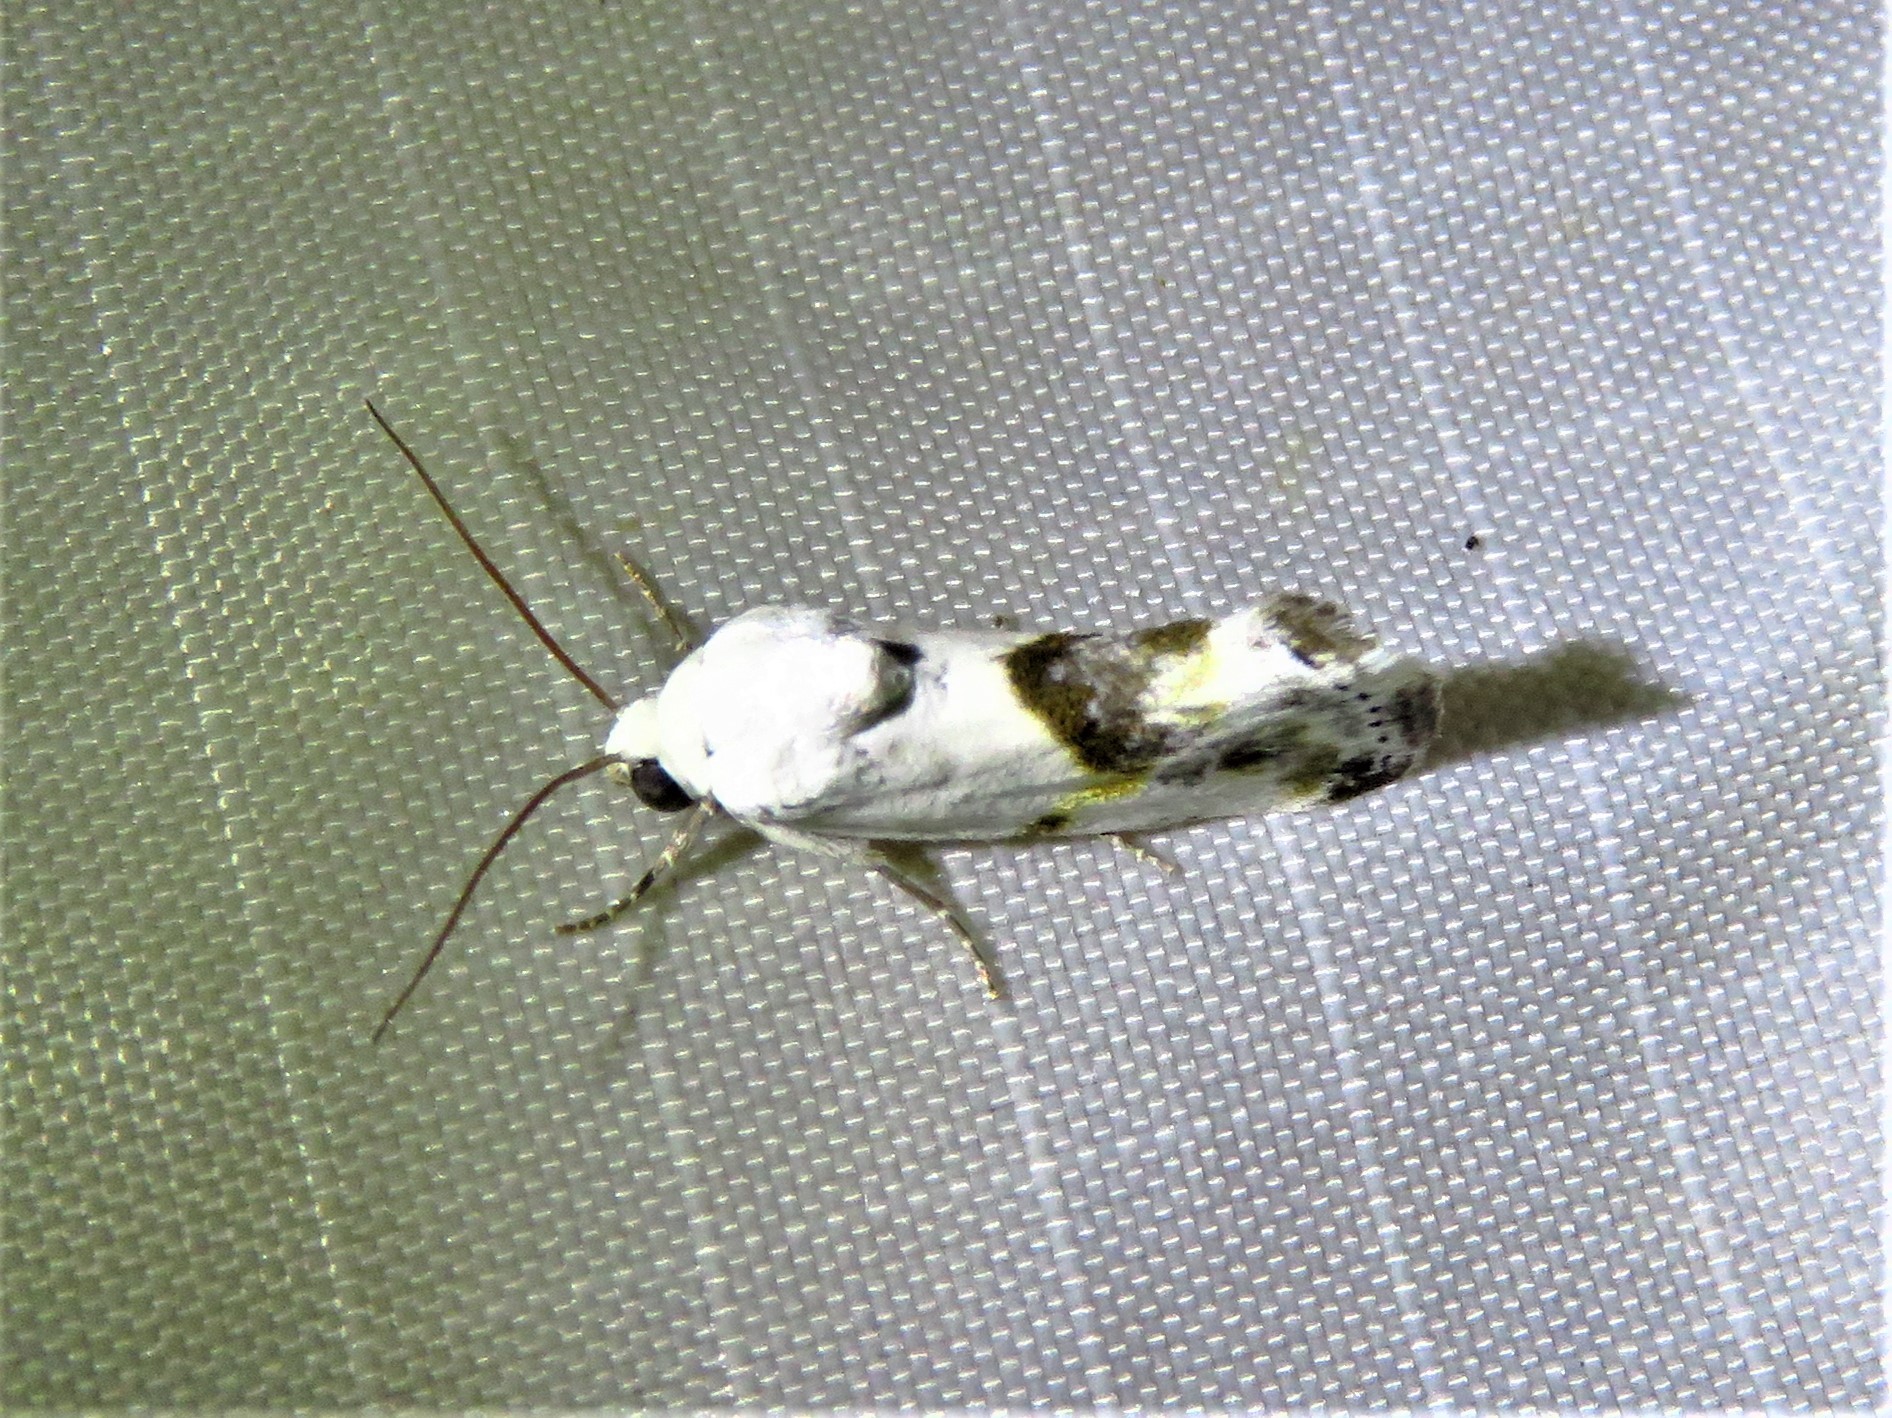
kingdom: Animalia
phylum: Arthropoda
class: Insecta
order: Lepidoptera
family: Noctuidae
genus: Acontia
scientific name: Acontia candefacta
